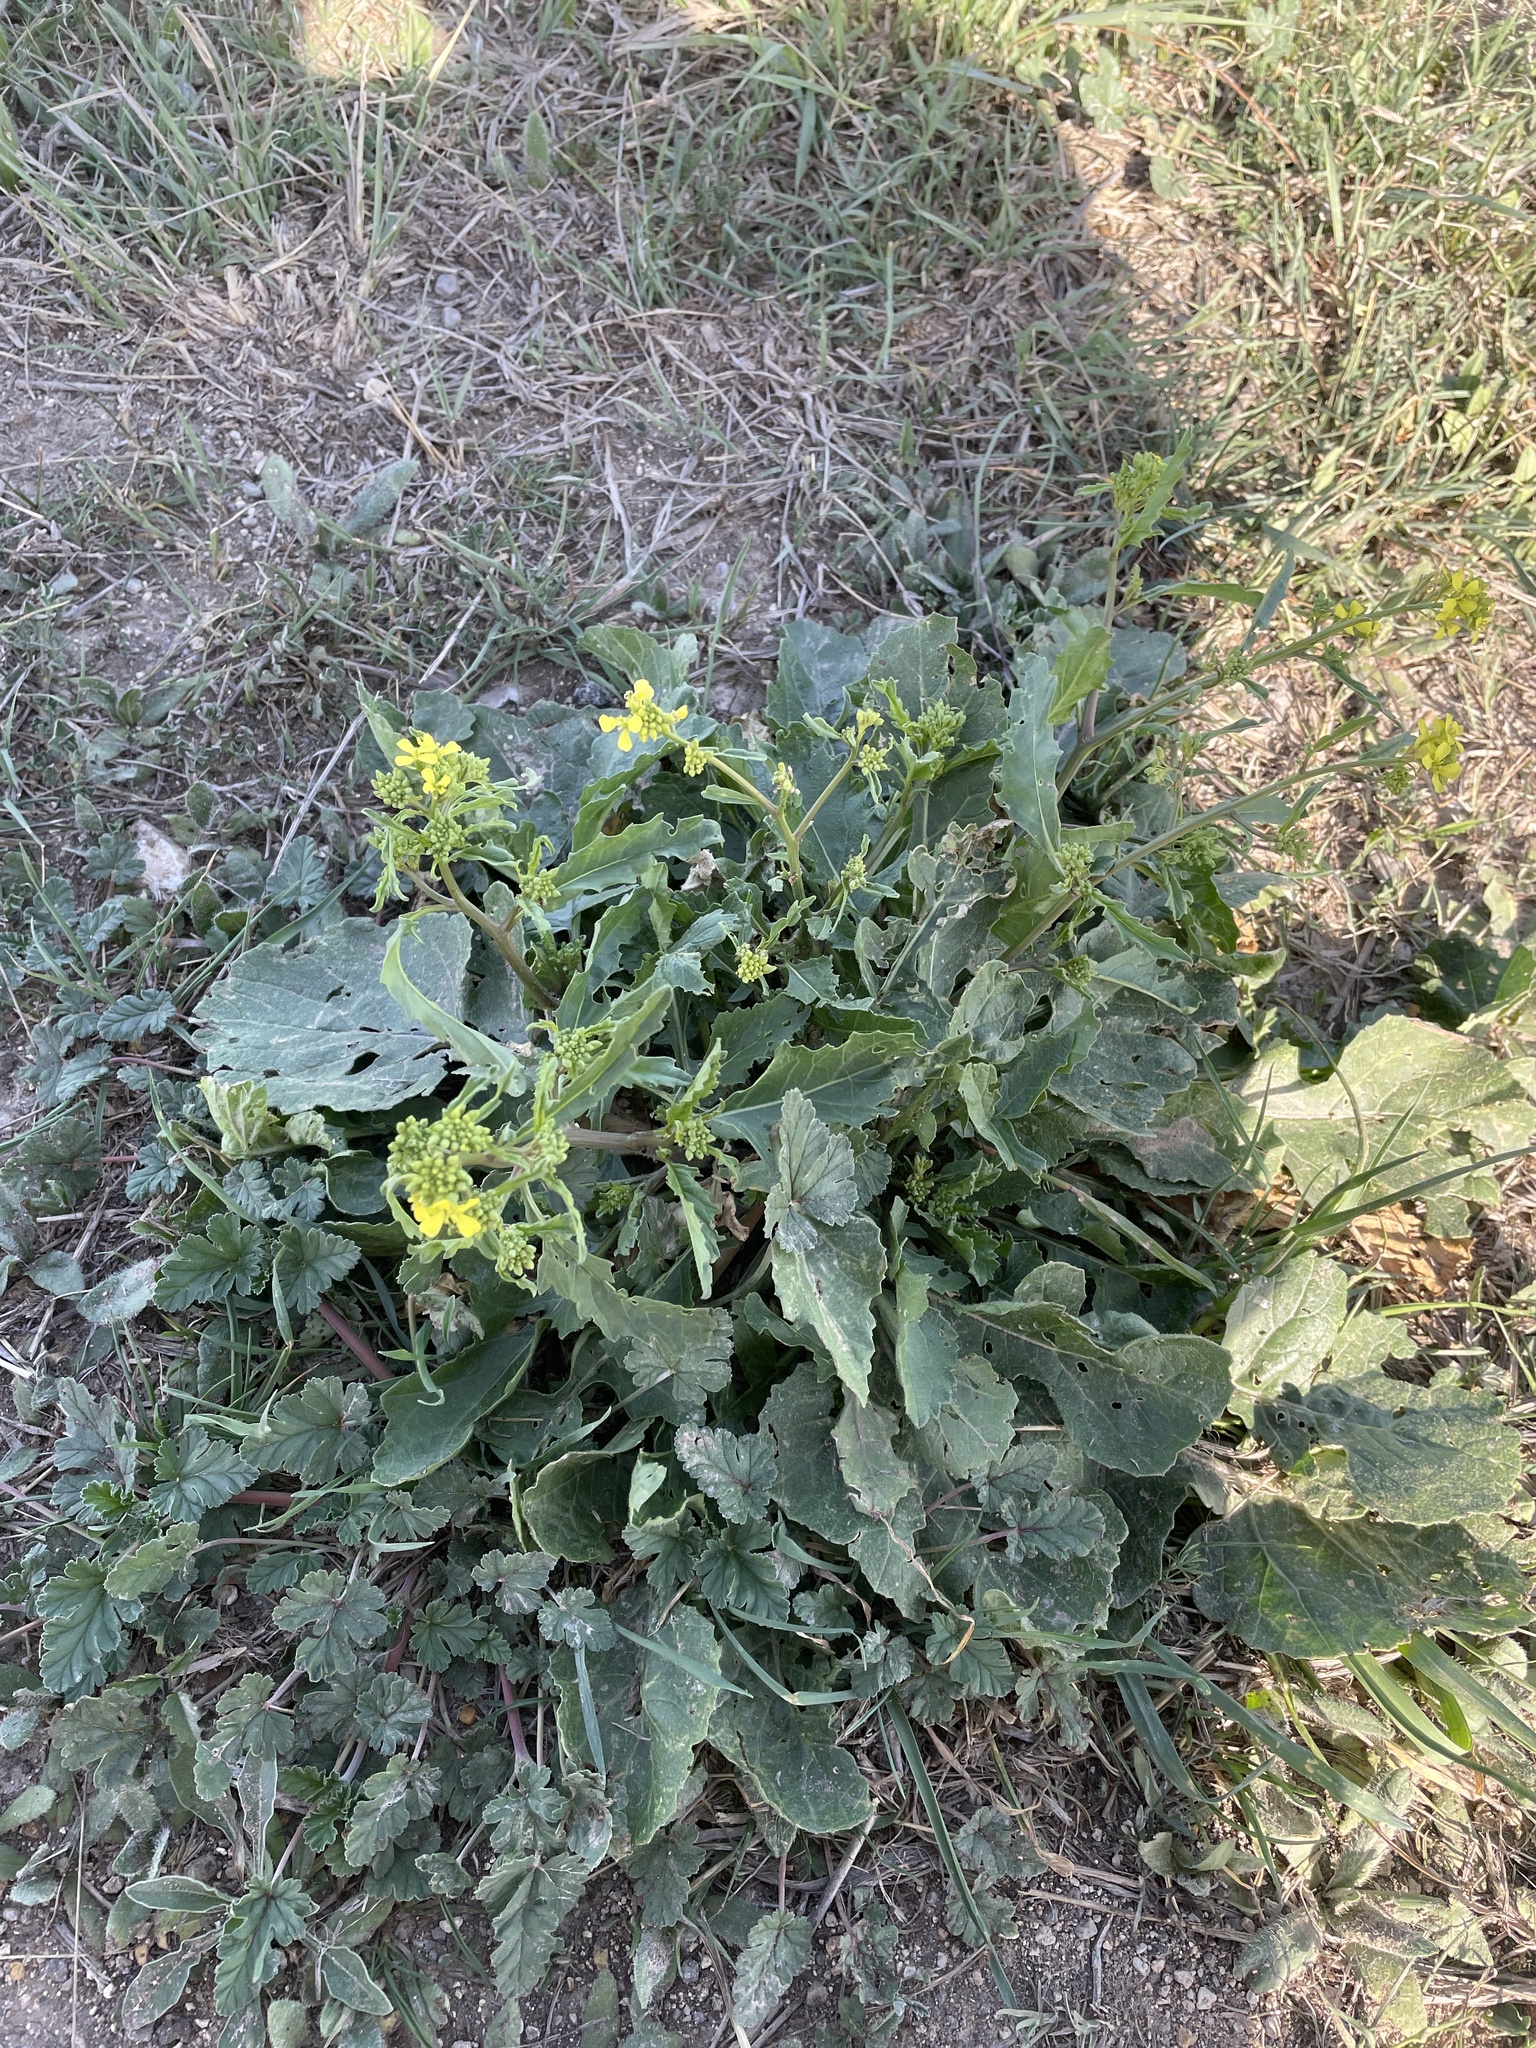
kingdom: Plantae
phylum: Tracheophyta
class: Magnoliopsida
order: Brassicales
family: Brassicaceae
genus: Rapistrum
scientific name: Rapistrum rugosum
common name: Annual bastardcabbage
